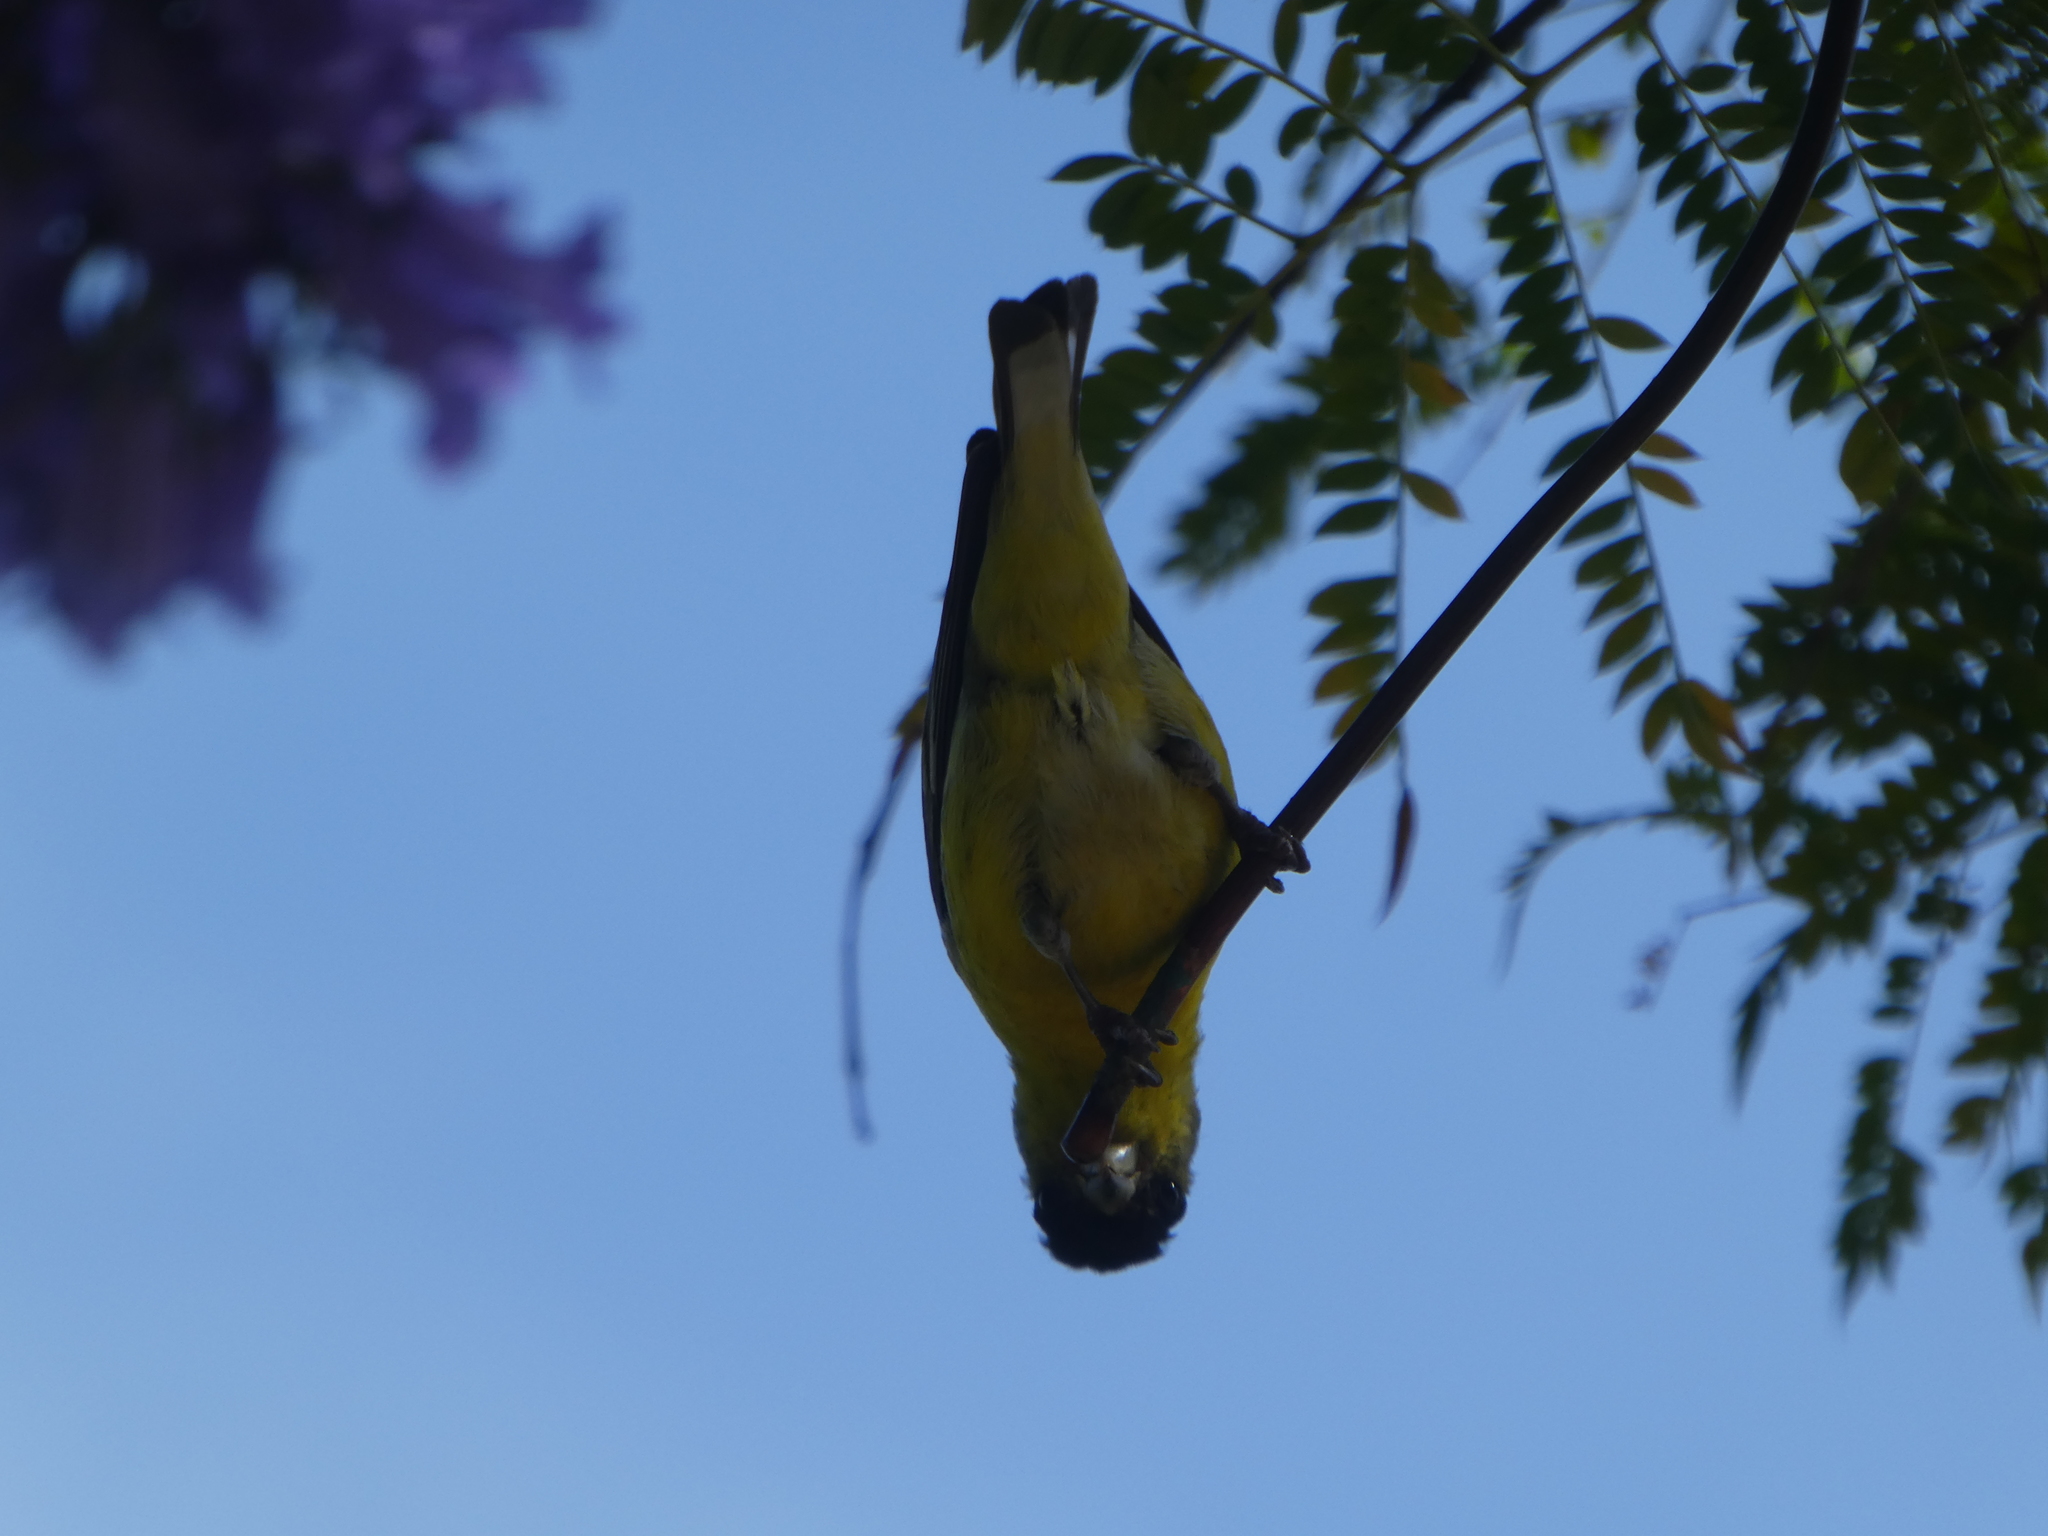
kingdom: Animalia
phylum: Chordata
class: Aves
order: Passeriformes
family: Fringillidae
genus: Spinus
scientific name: Spinus psaltria
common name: Lesser goldfinch
